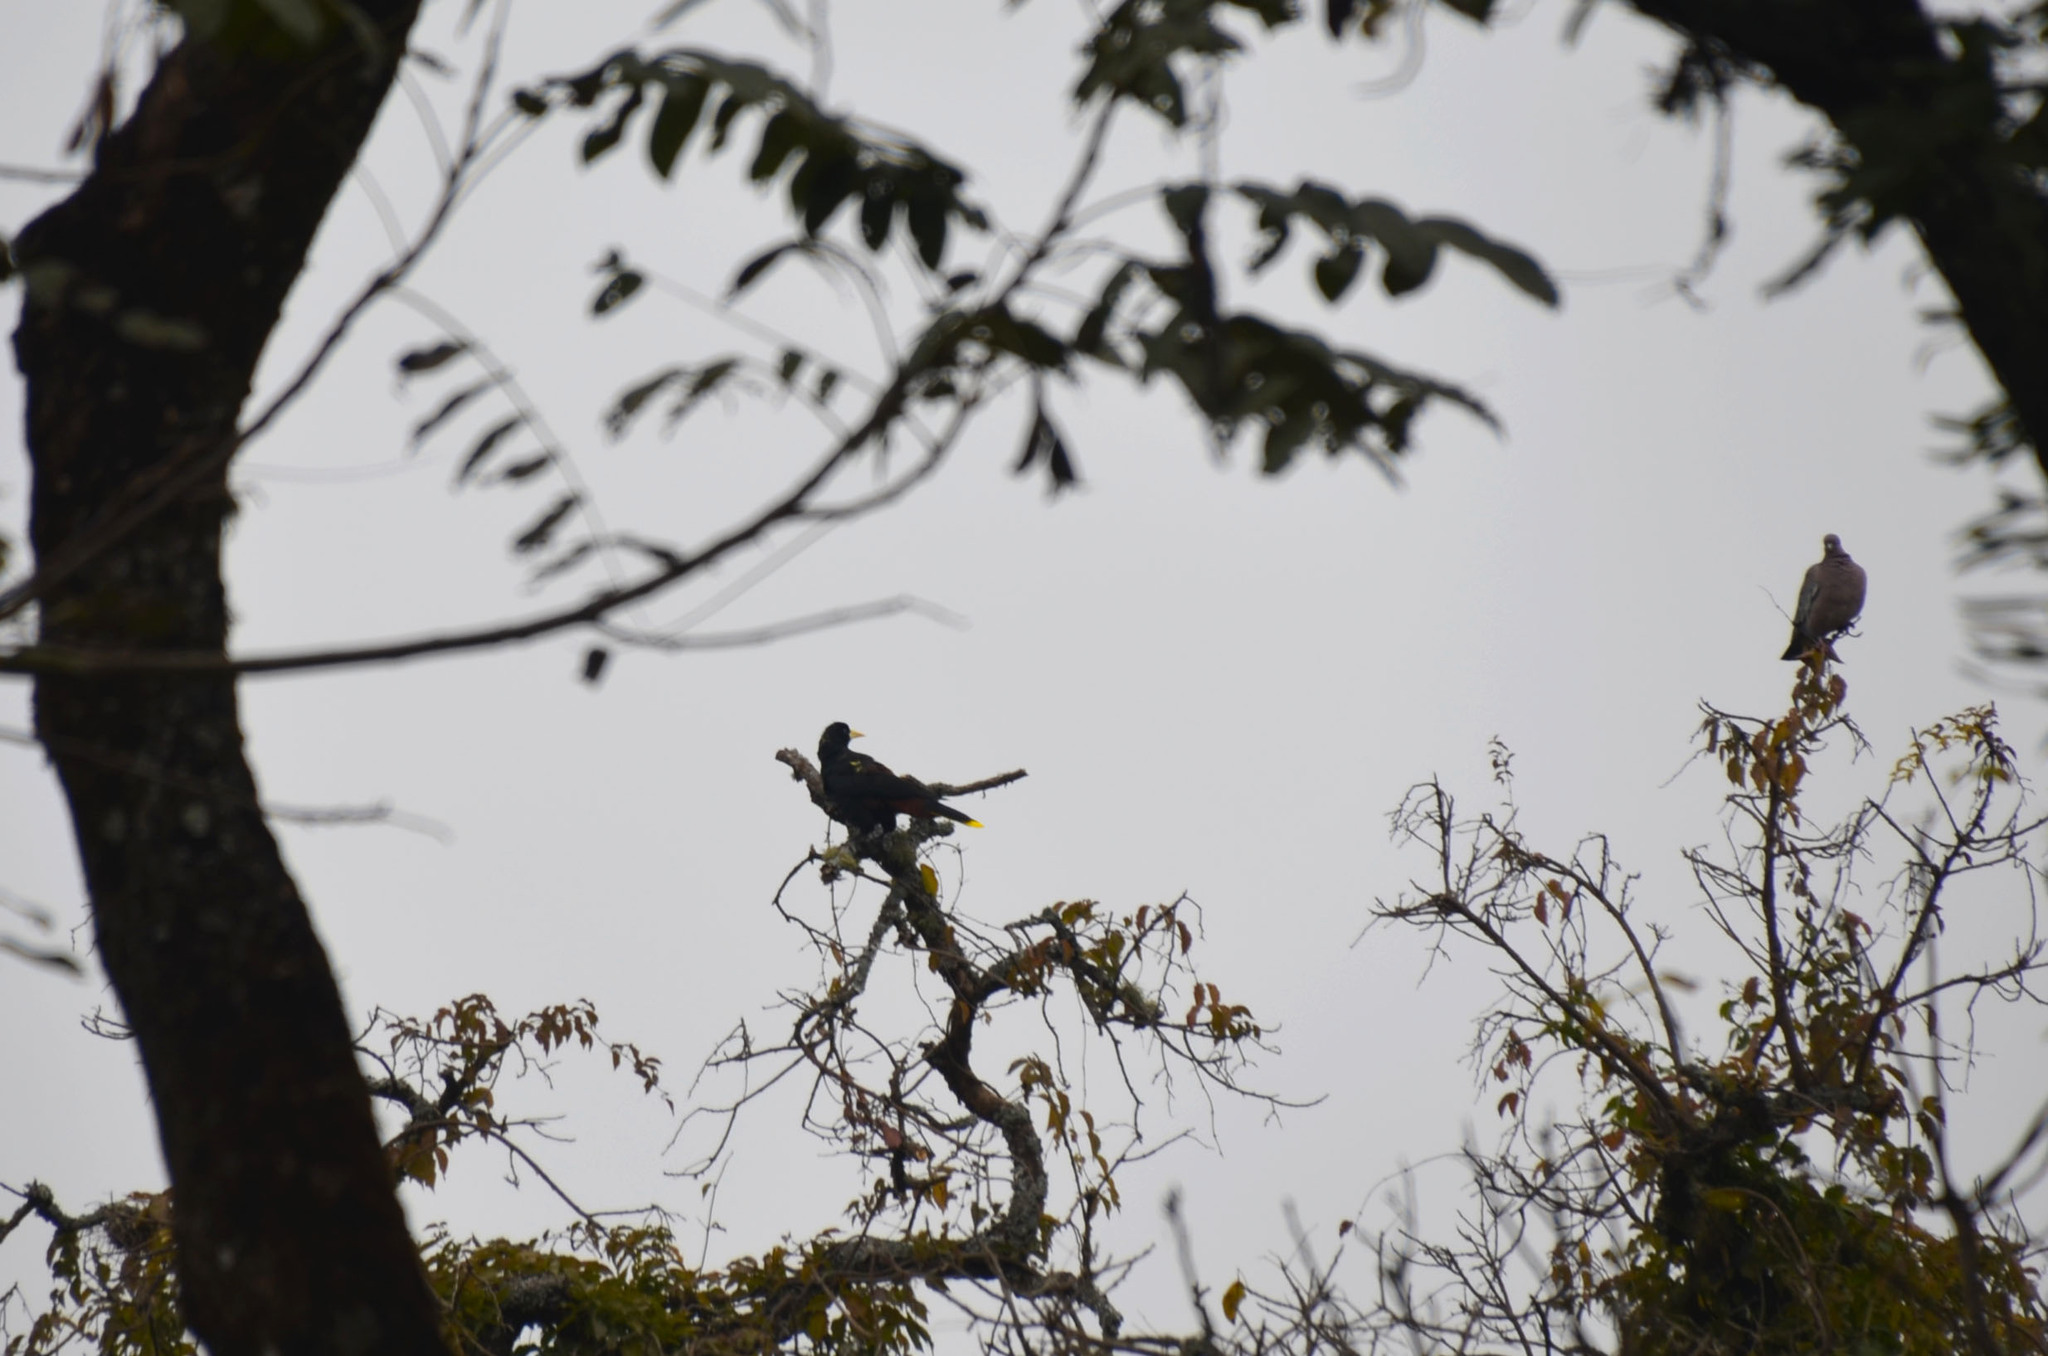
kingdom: Animalia
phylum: Chordata
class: Aves
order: Passeriformes
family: Icteridae
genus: Psarocolius
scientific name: Psarocolius decumanus
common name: Crested oropendola
